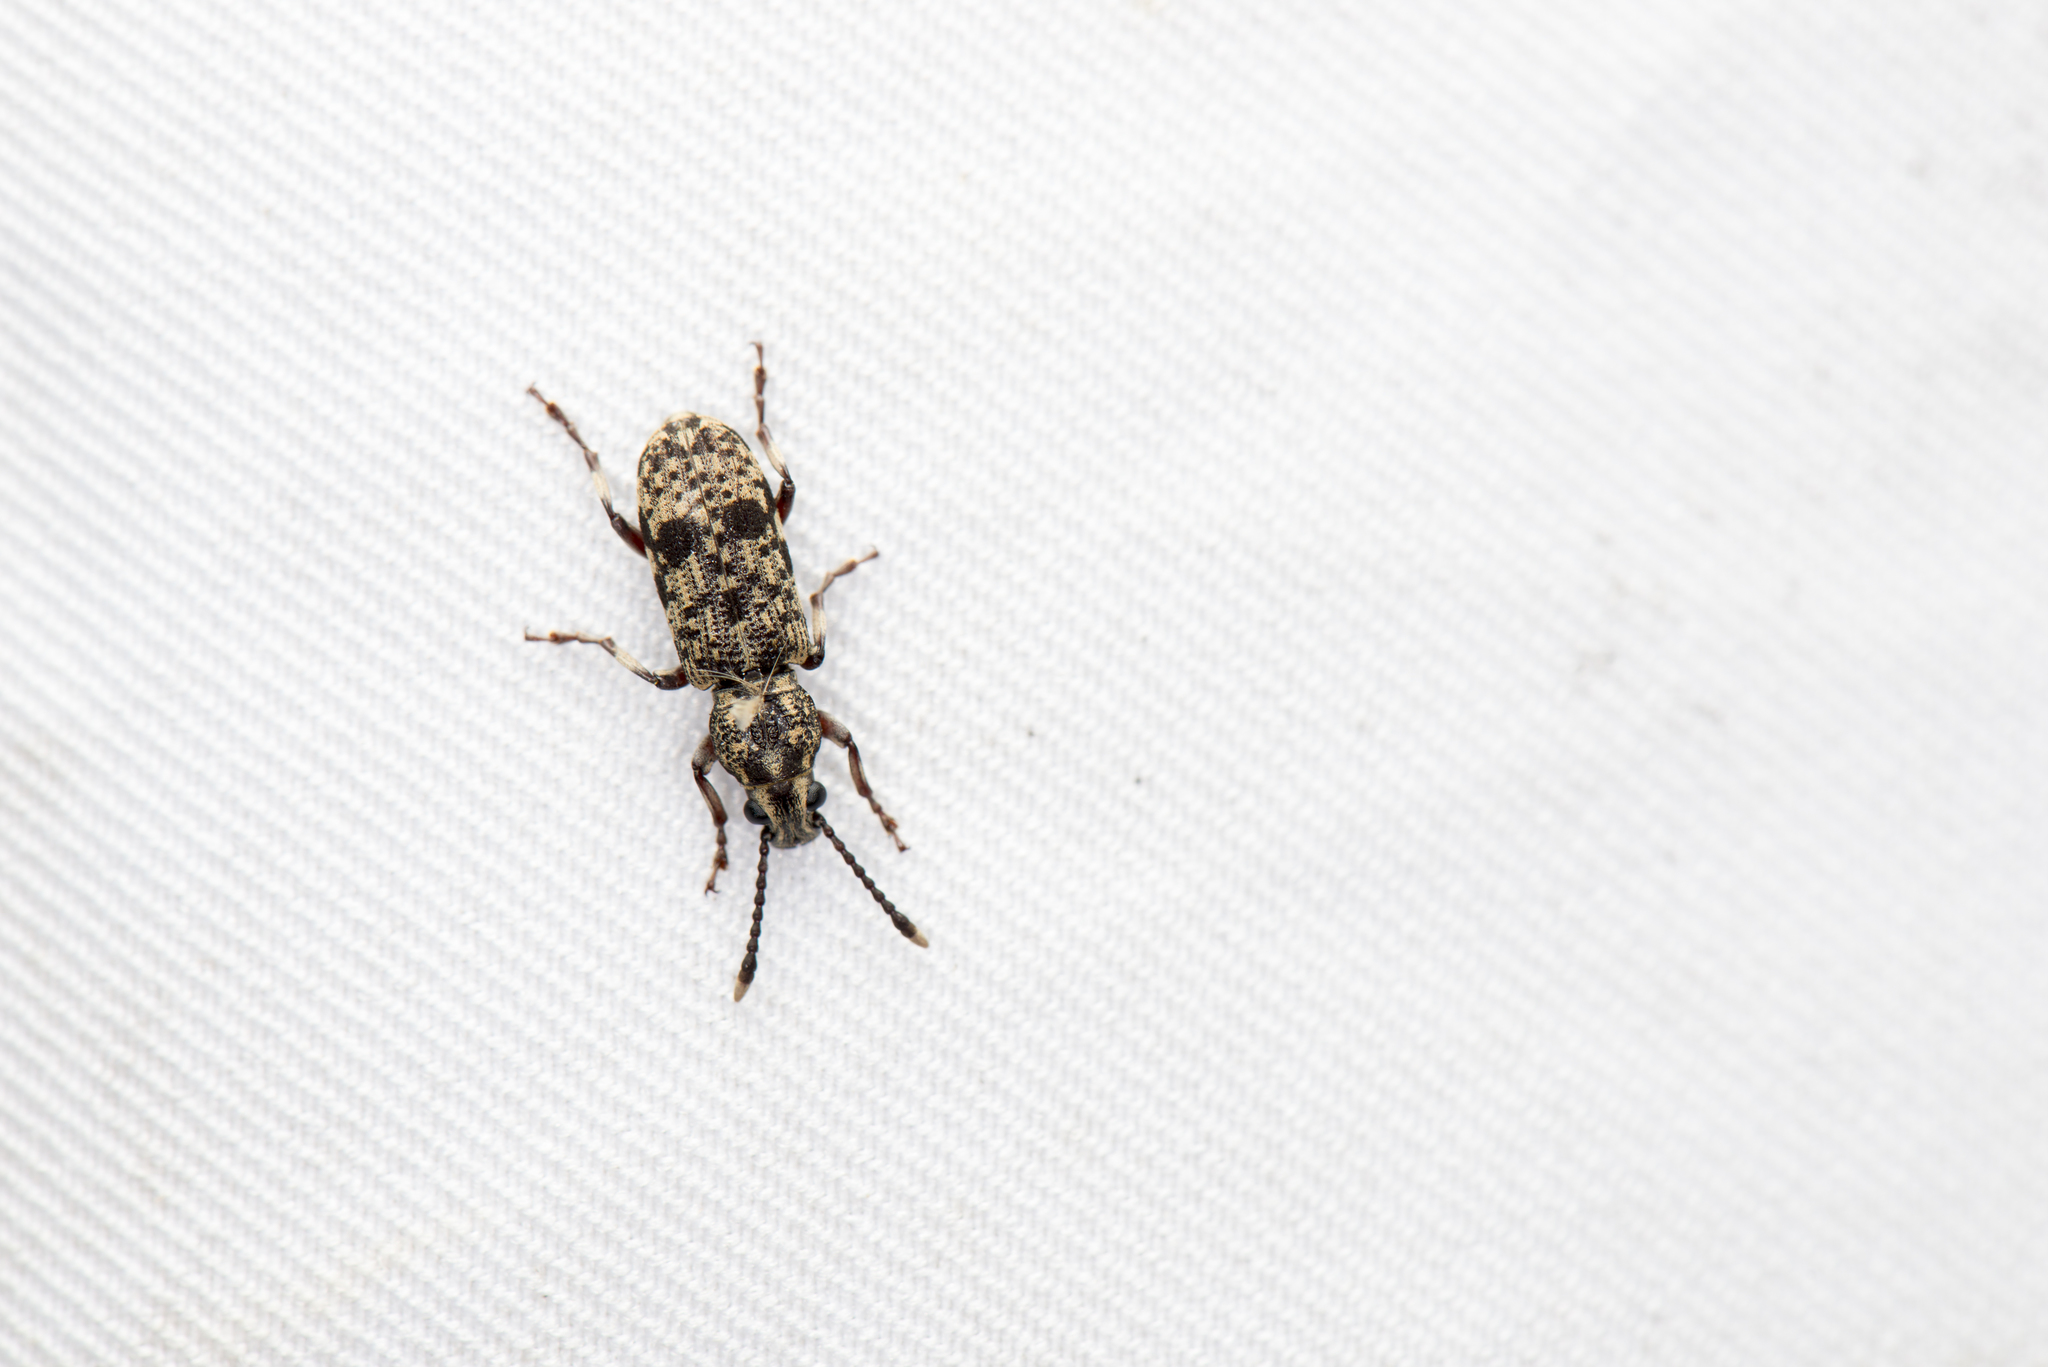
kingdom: Animalia
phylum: Arthropoda
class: Insecta
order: Coleoptera
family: Anthribidae
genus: Stiboderes
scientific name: Stiboderes stibinus
